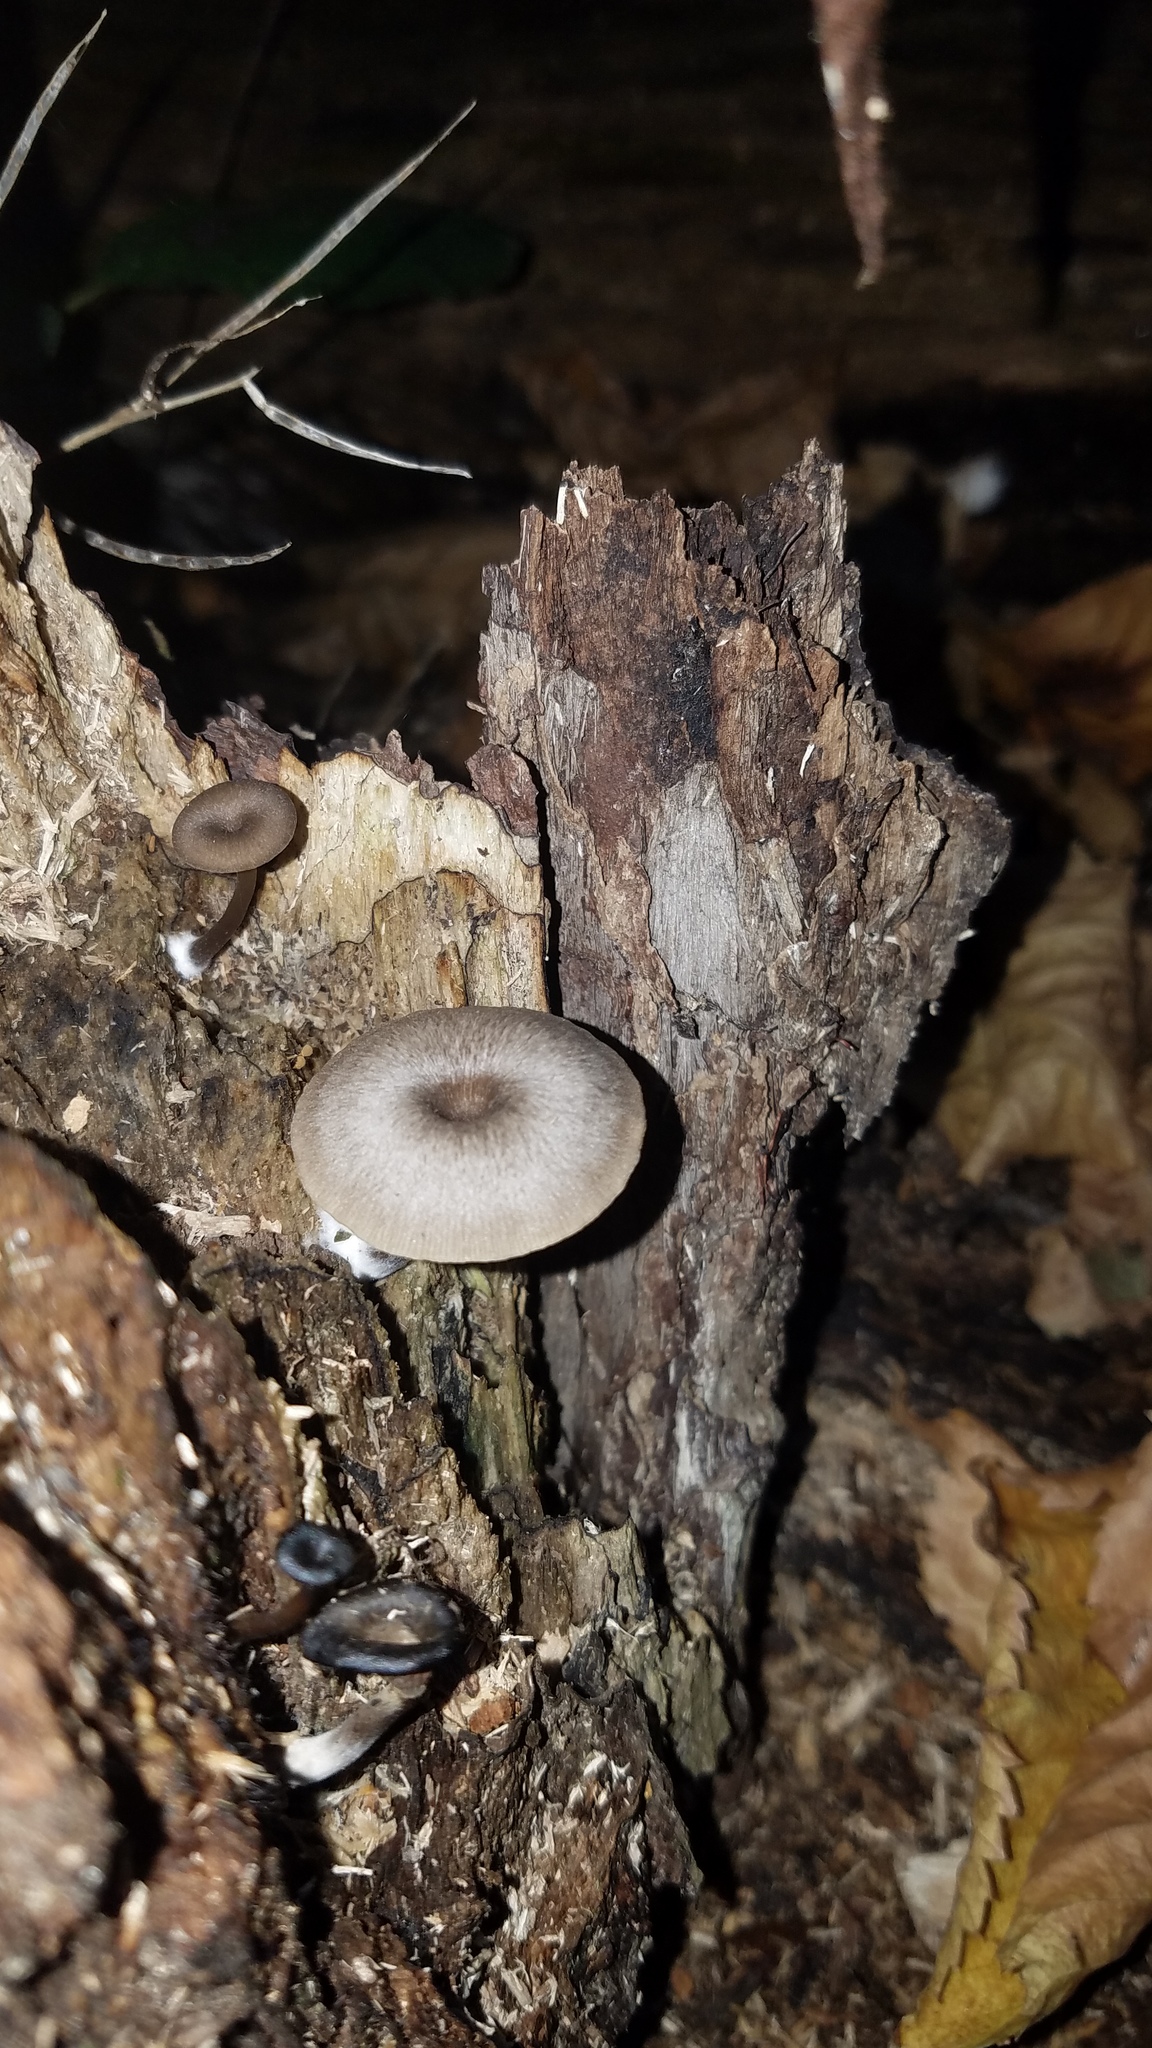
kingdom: Fungi
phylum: Basidiomycota
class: Agaricomycetes
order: Agaricales
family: Hygrophoraceae
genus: Arrhenia
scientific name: Arrhenia epichysium
